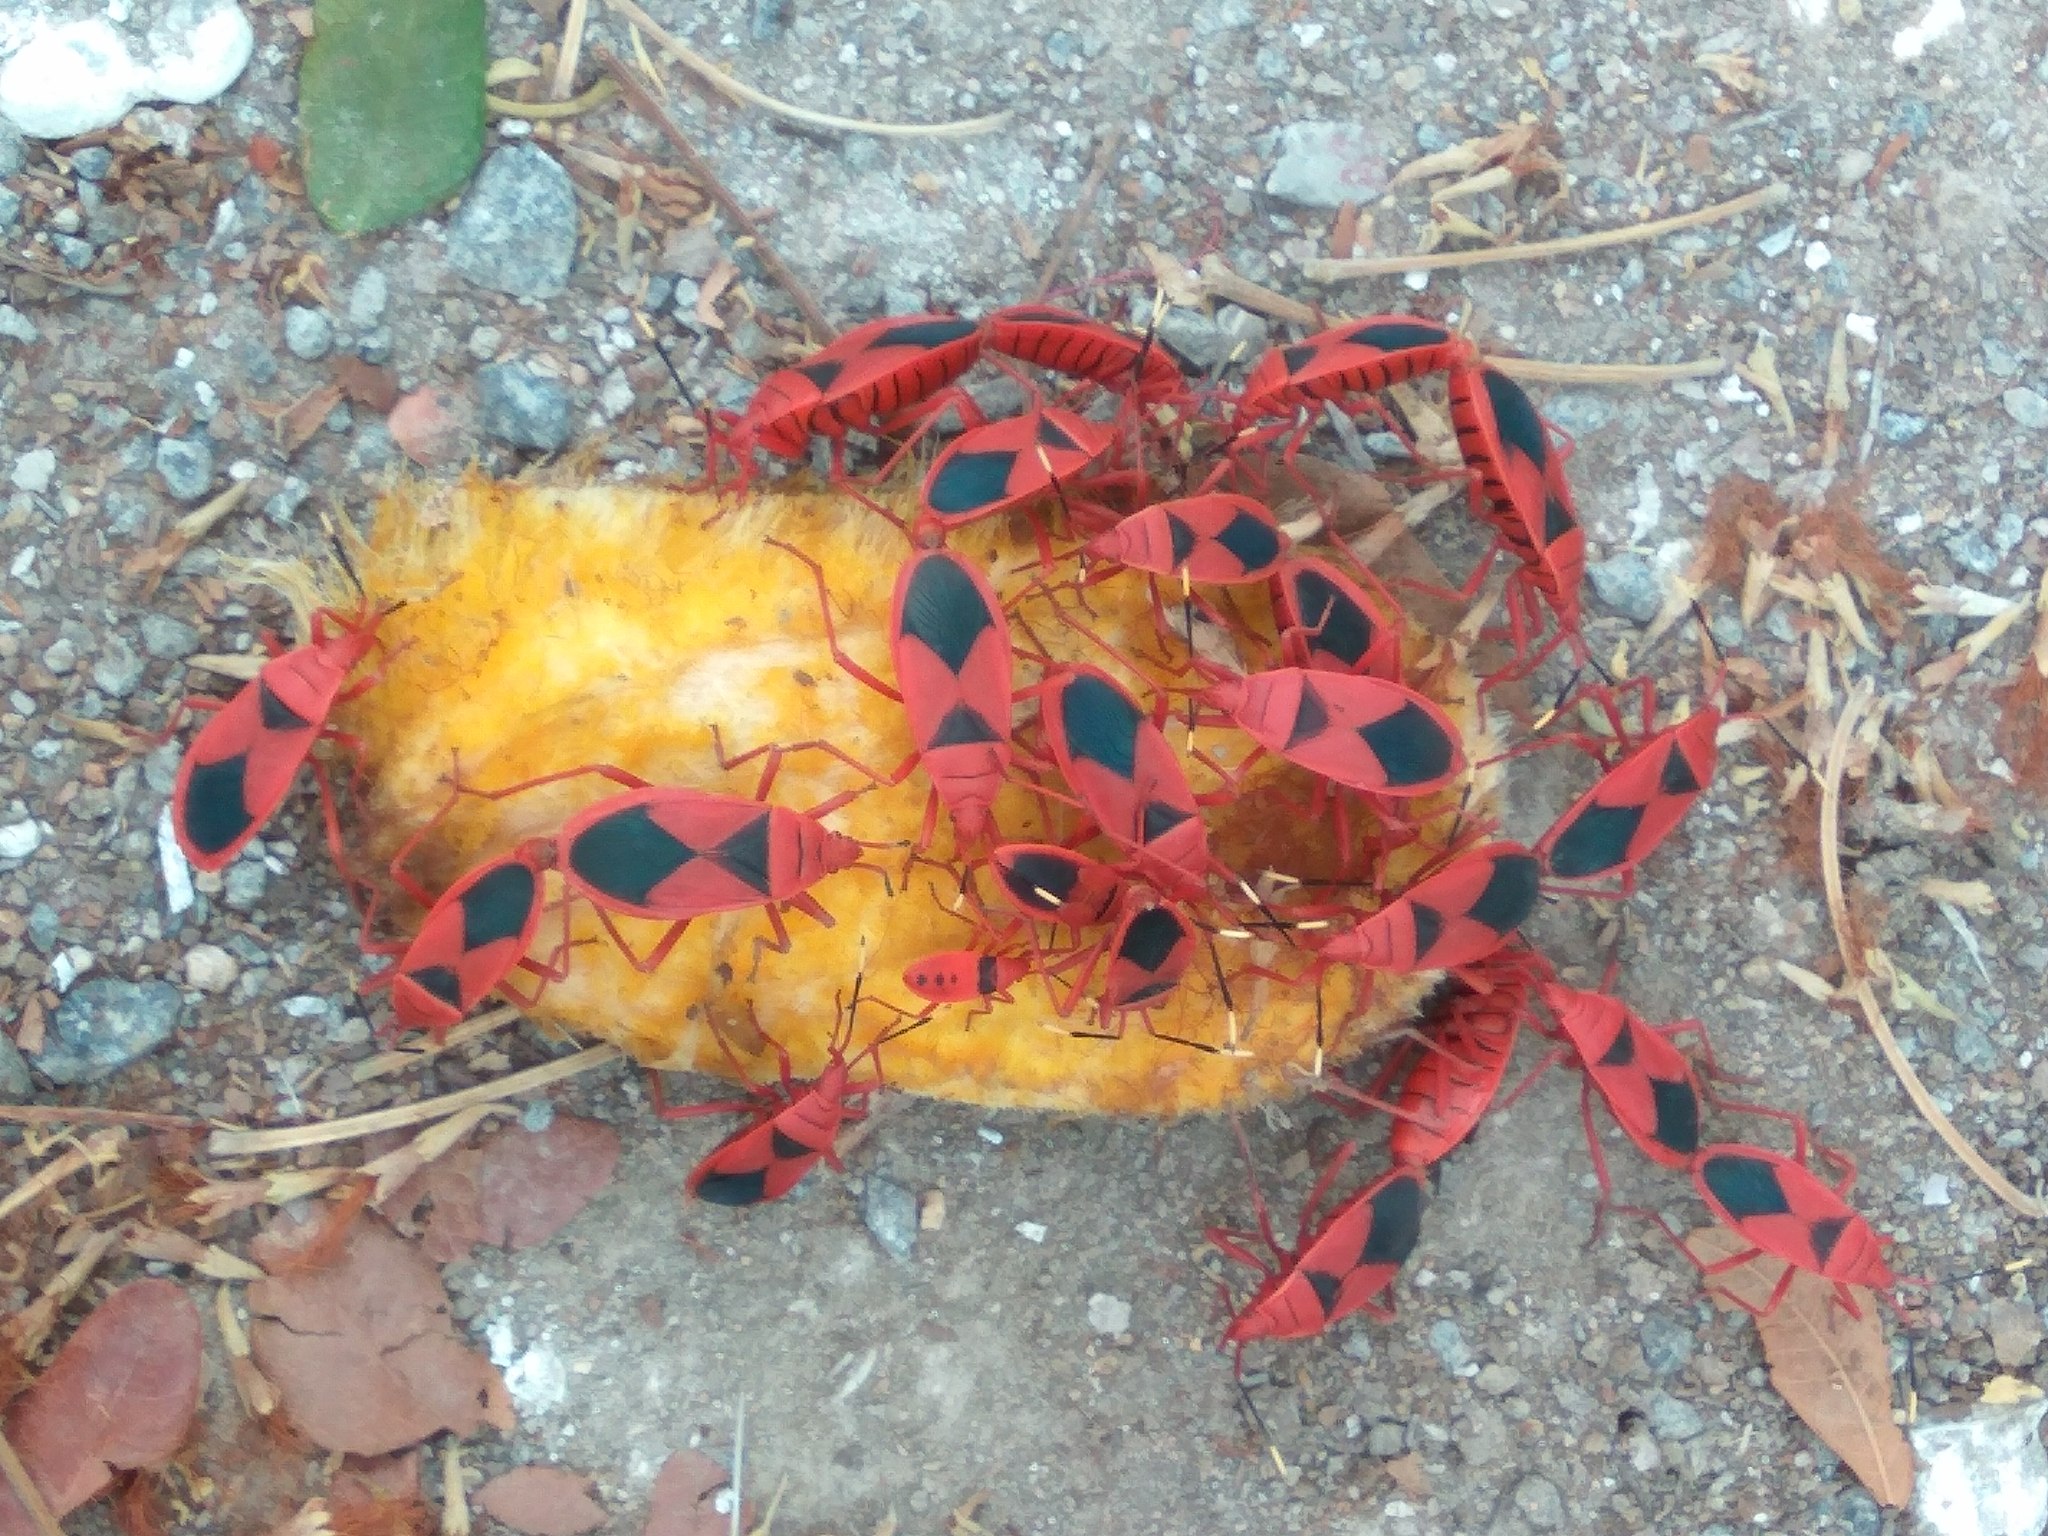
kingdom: Animalia
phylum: Arthropoda
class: Insecta
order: Hemiptera
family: Pyrrhocoridae
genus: Probergrothius
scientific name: Probergrothius
